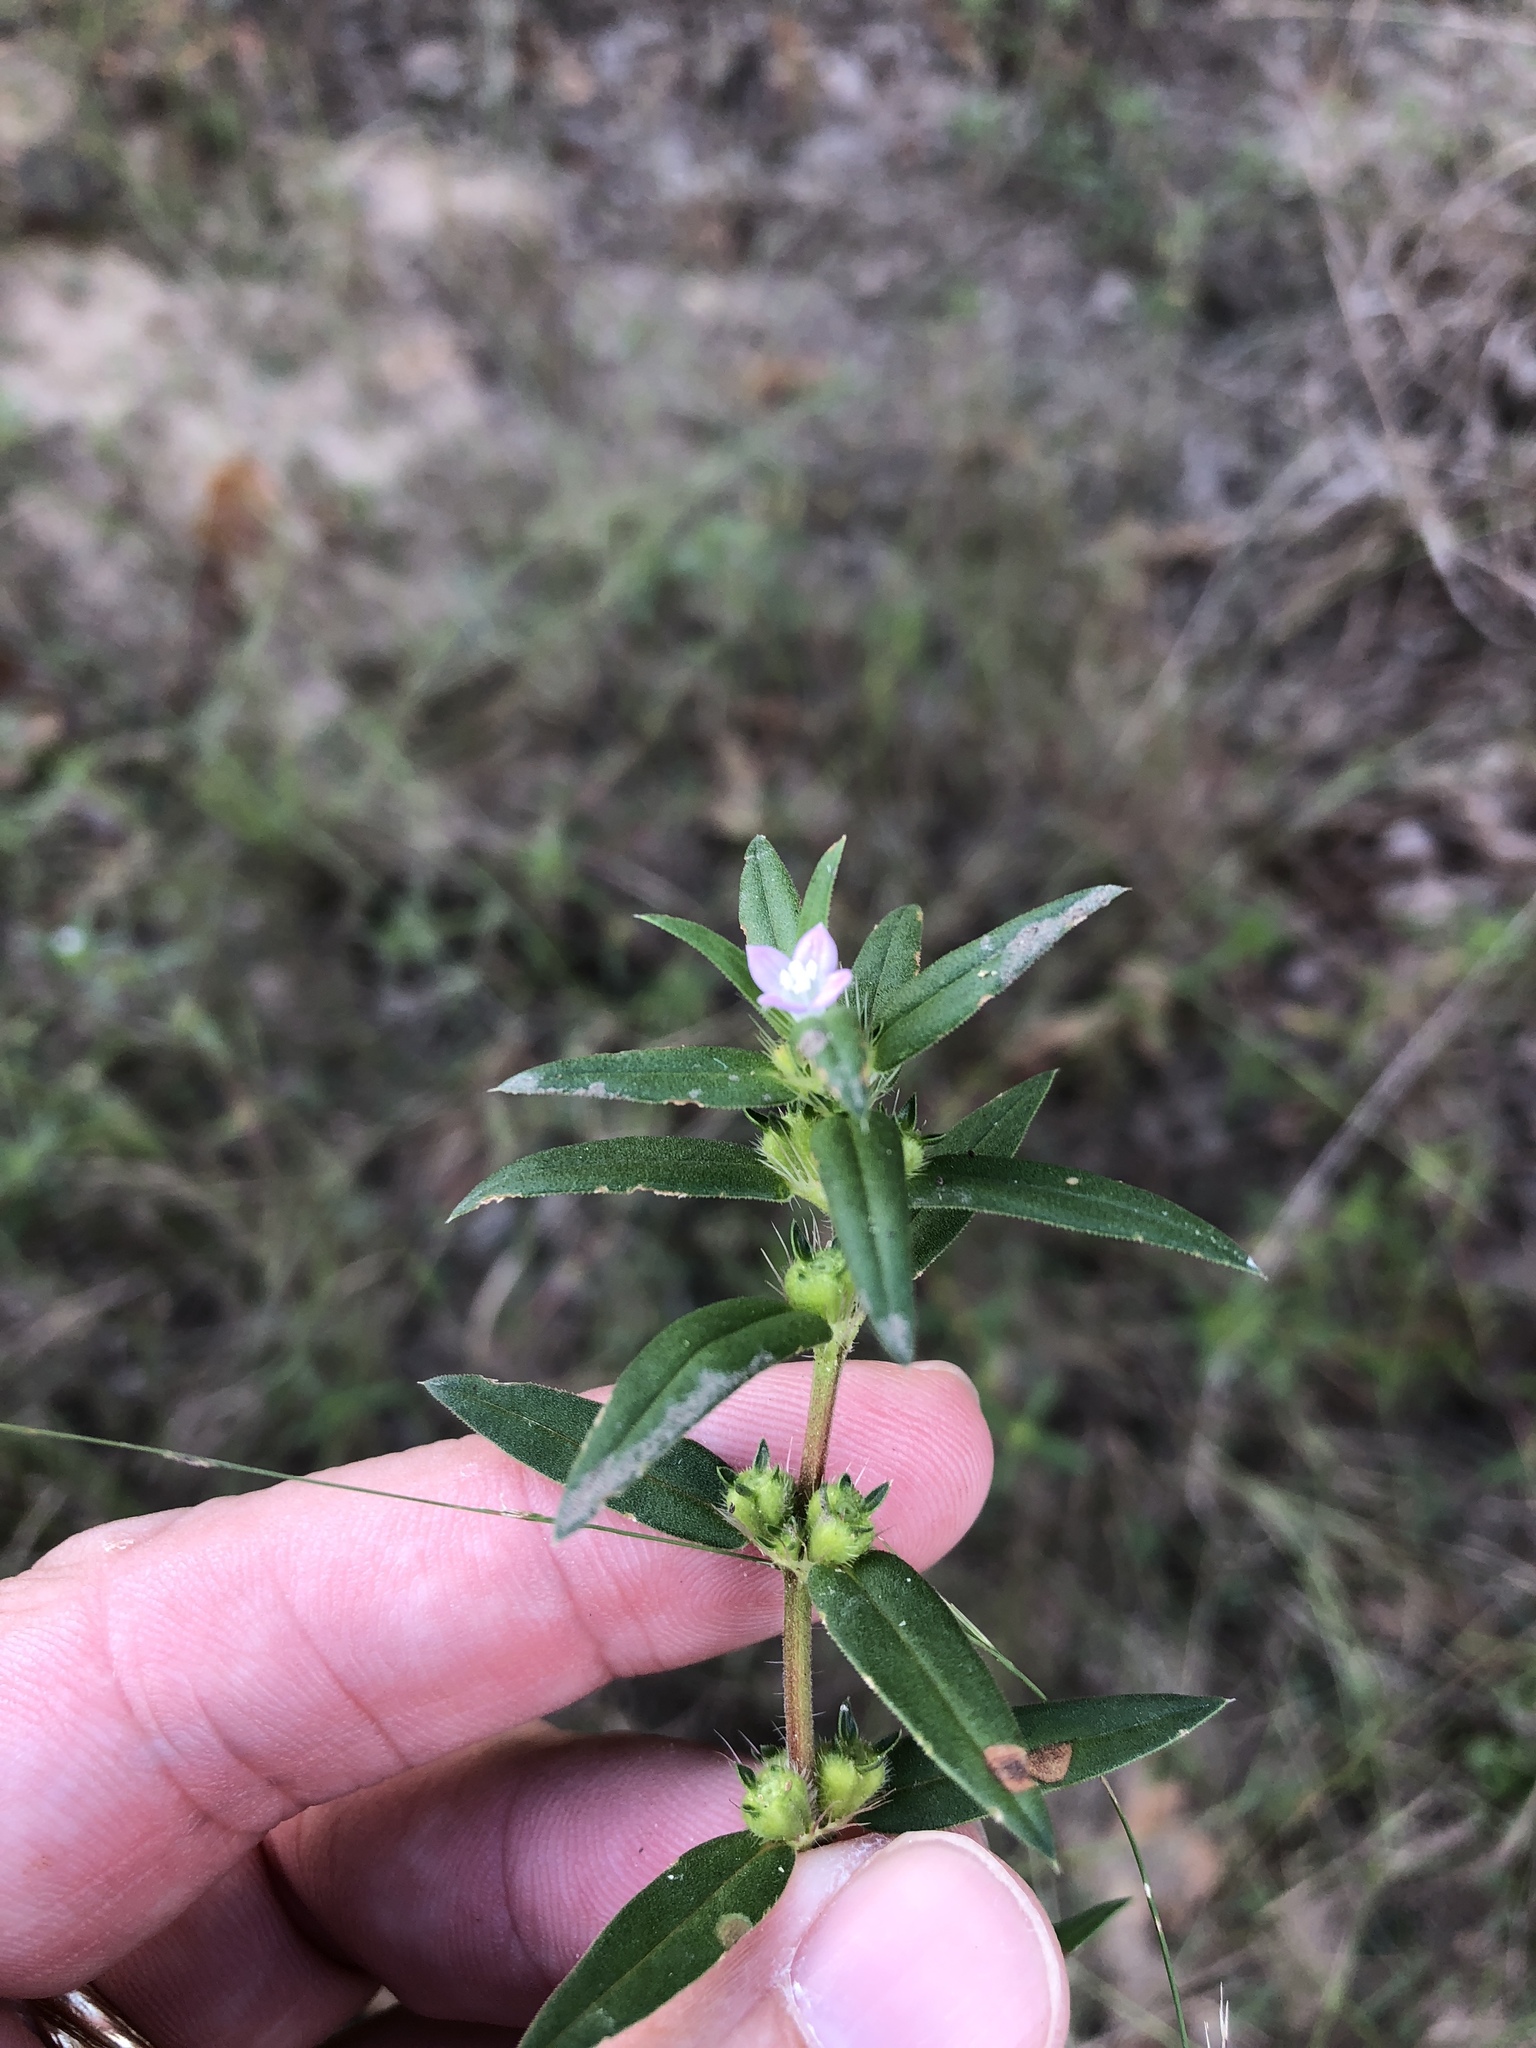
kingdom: Plantae
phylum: Tracheophyta
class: Magnoliopsida
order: Gentianales
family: Rubiaceae
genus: Hexasepalum
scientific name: Hexasepalum teres
